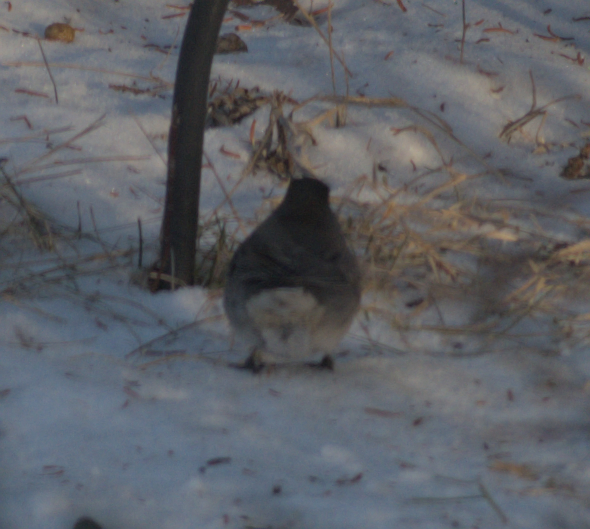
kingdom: Animalia
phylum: Chordata
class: Aves
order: Passeriformes
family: Passerellidae
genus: Junco
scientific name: Junco hyemalis
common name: Dark-eyed junco
